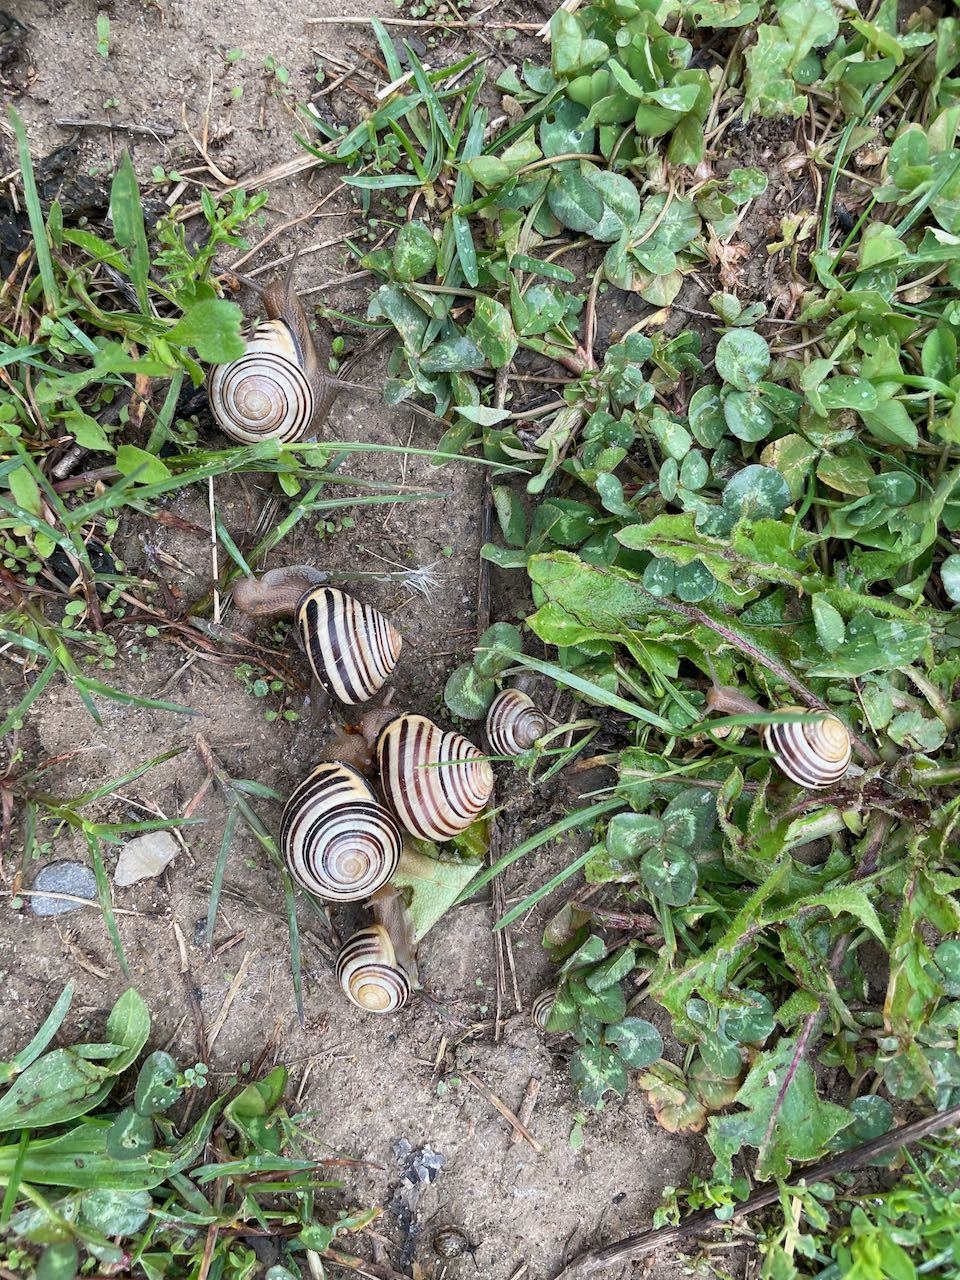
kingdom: Animalia
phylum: Mollusca
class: Gastropoda
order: Stylommatophora
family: Helicidae
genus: Cepaea
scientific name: Cepaea nemoralis
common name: Grovesnail
